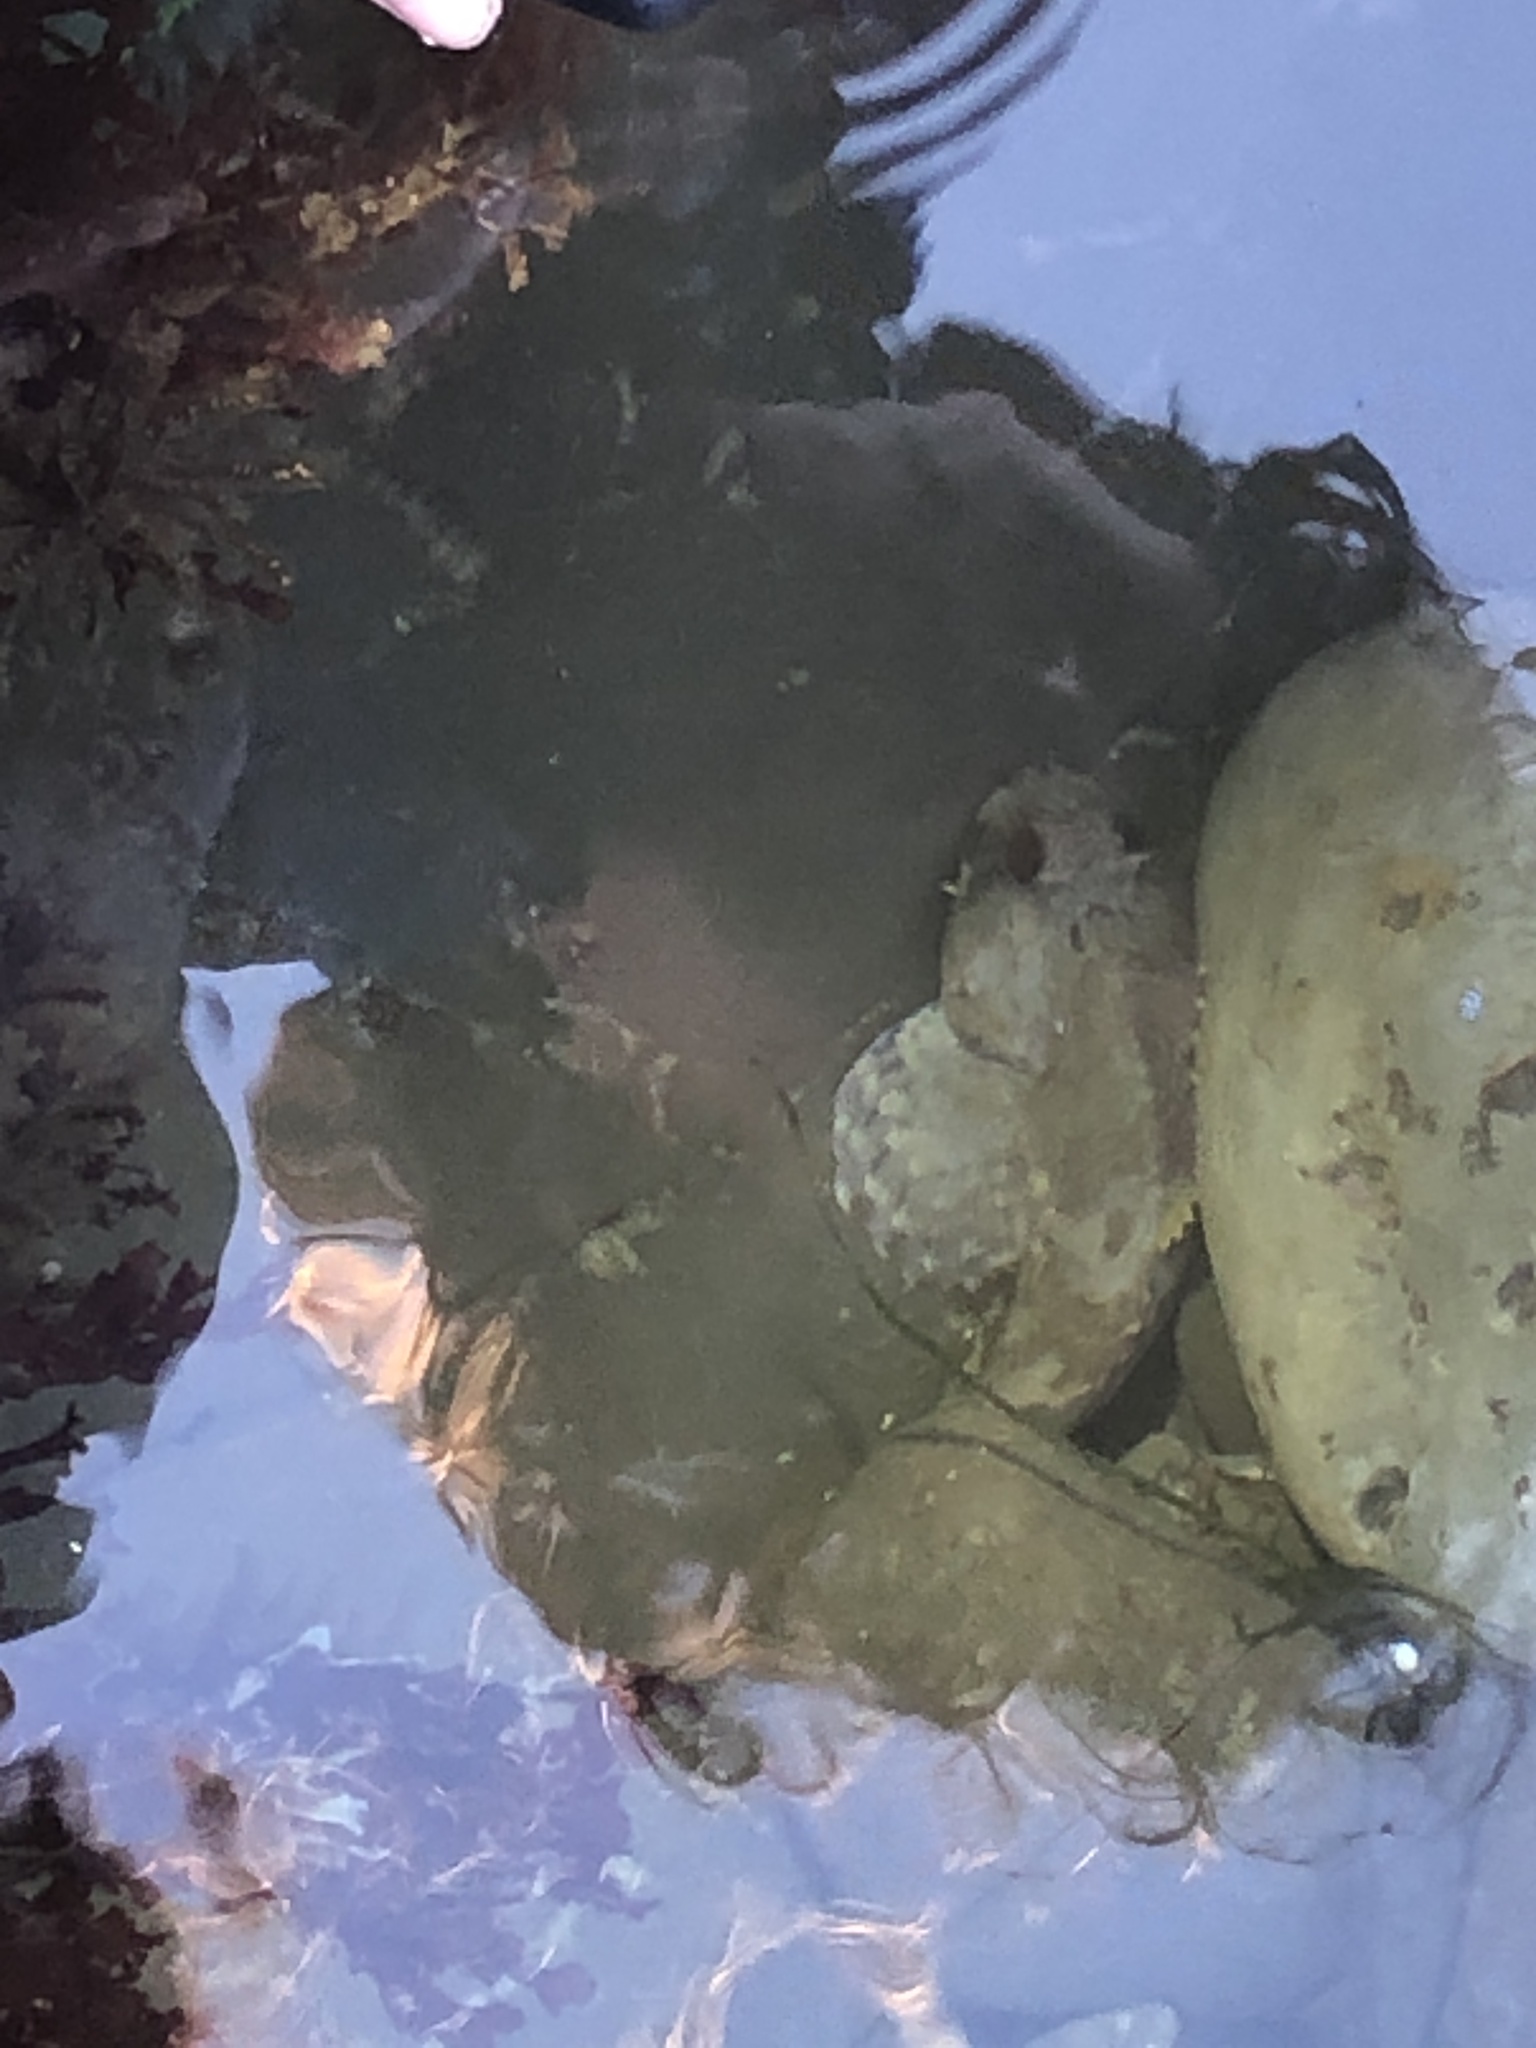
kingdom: Animalia
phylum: Chordata
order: Scorpaeniformes
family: Cottidae
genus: Scorpaenichthys
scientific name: Scorpaenichthys marmoratus
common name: Cabezon
